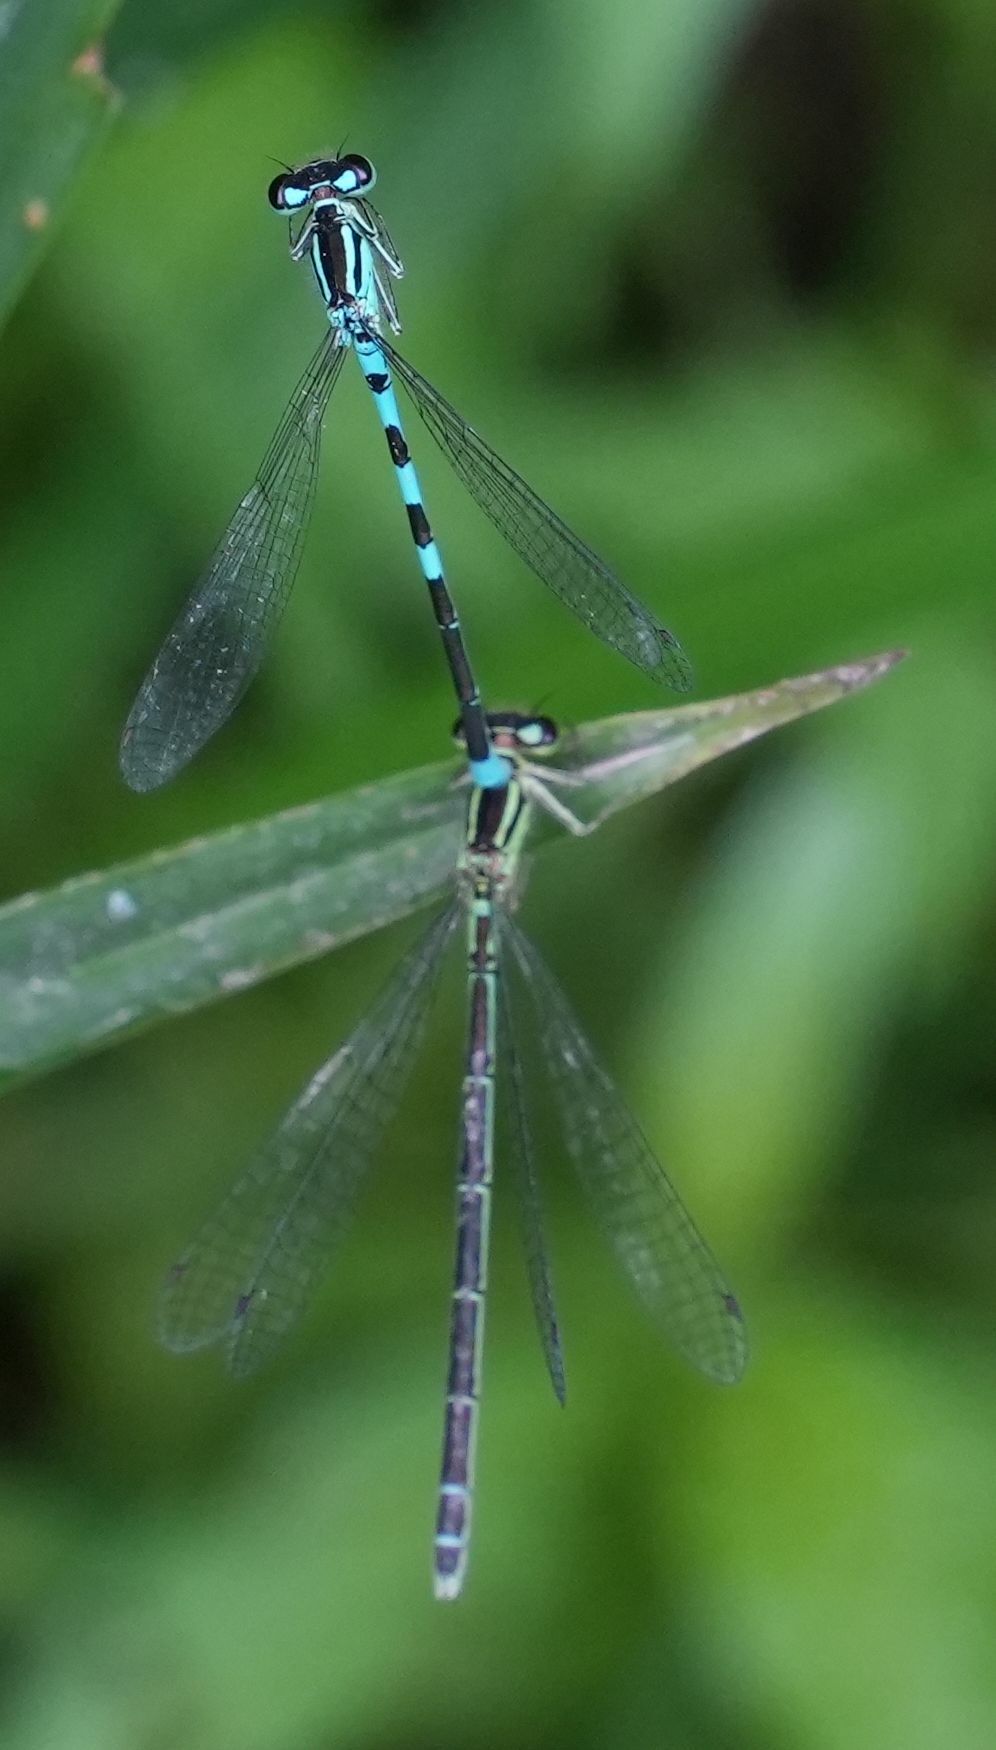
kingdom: Animalia
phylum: Arthropoda
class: Insecta
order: Odonata
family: Coenagrionidae
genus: Coenagrion
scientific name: Coenagrion resolutum
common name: Taiga bluet
